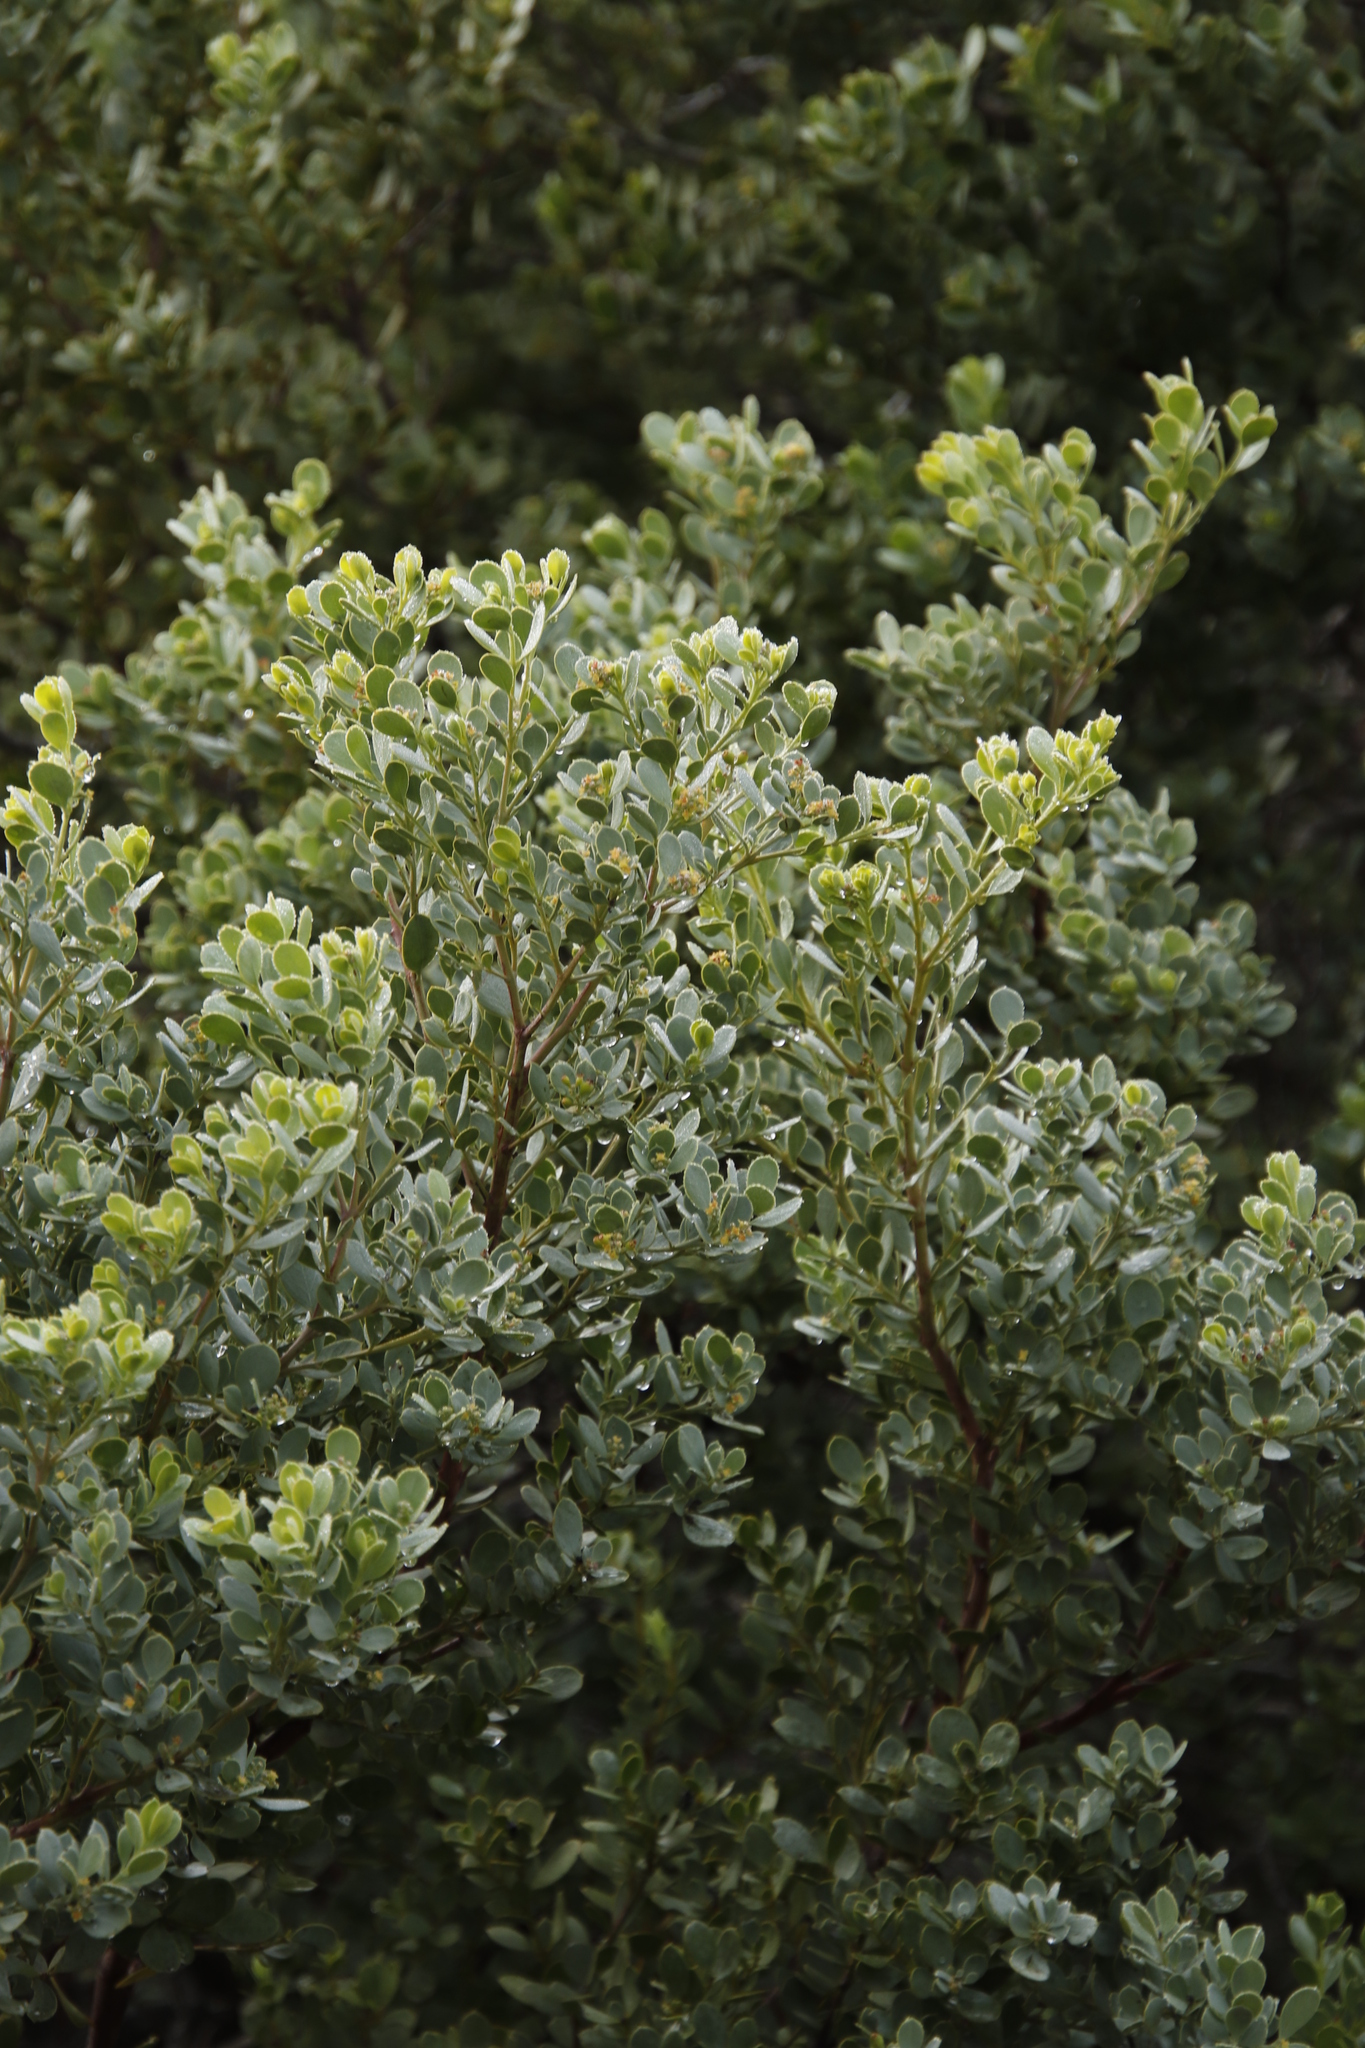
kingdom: Plantae
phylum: Tracheophyta
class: Magnoliopsida
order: Santalales
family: Santalaceae
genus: Osyris
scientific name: Osyris compressa
